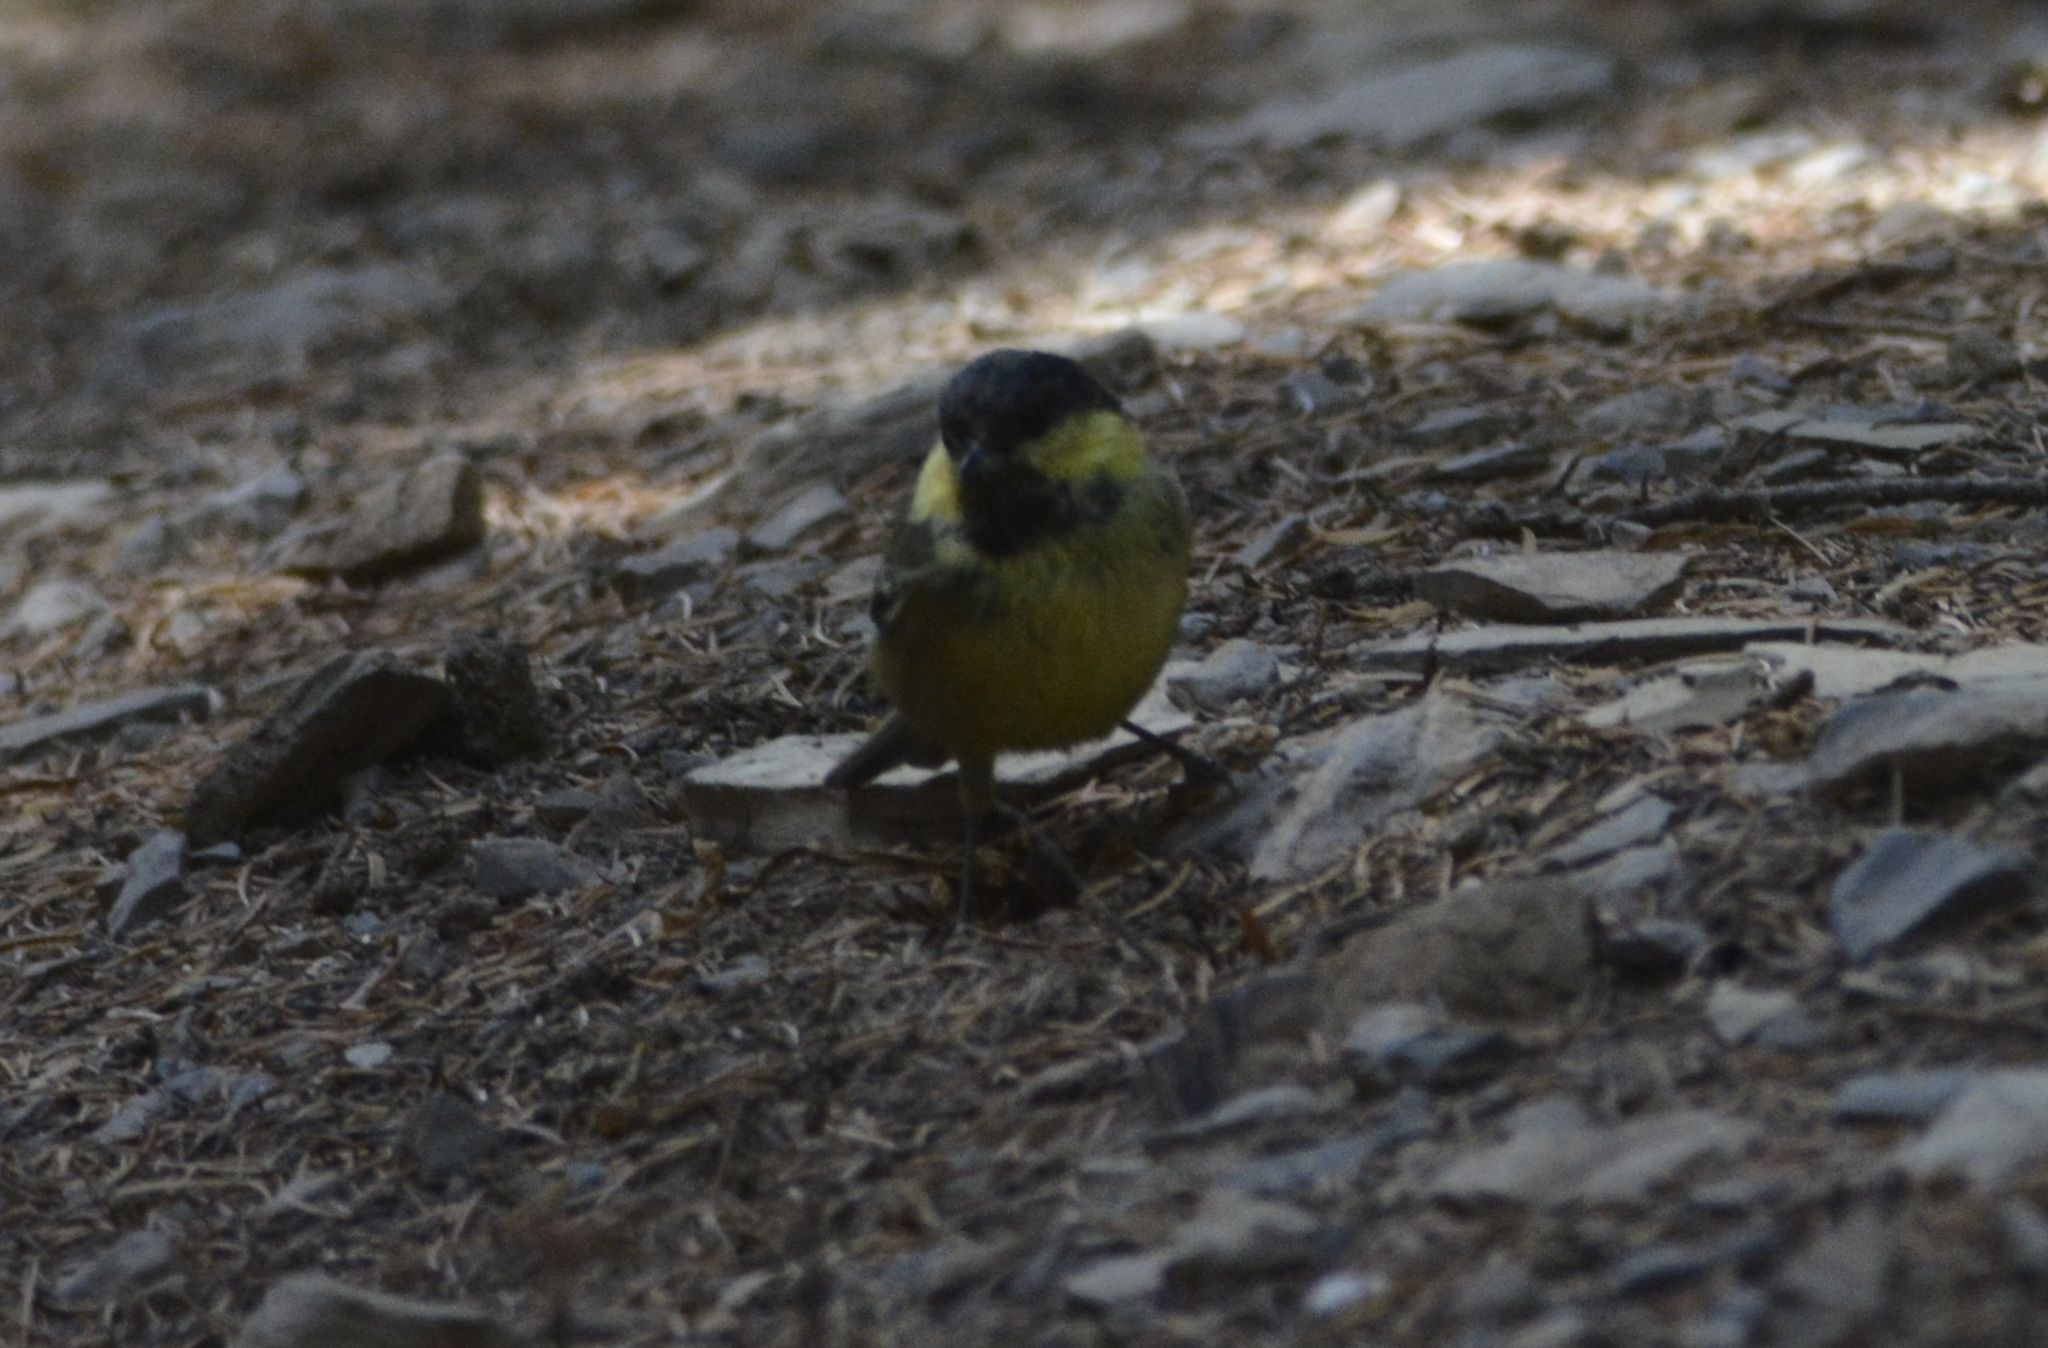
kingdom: Animalia
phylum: Chordata
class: Aves
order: Passeriformes
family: Paridae
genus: Periparus
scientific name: Periparus ater
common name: Coal tit
